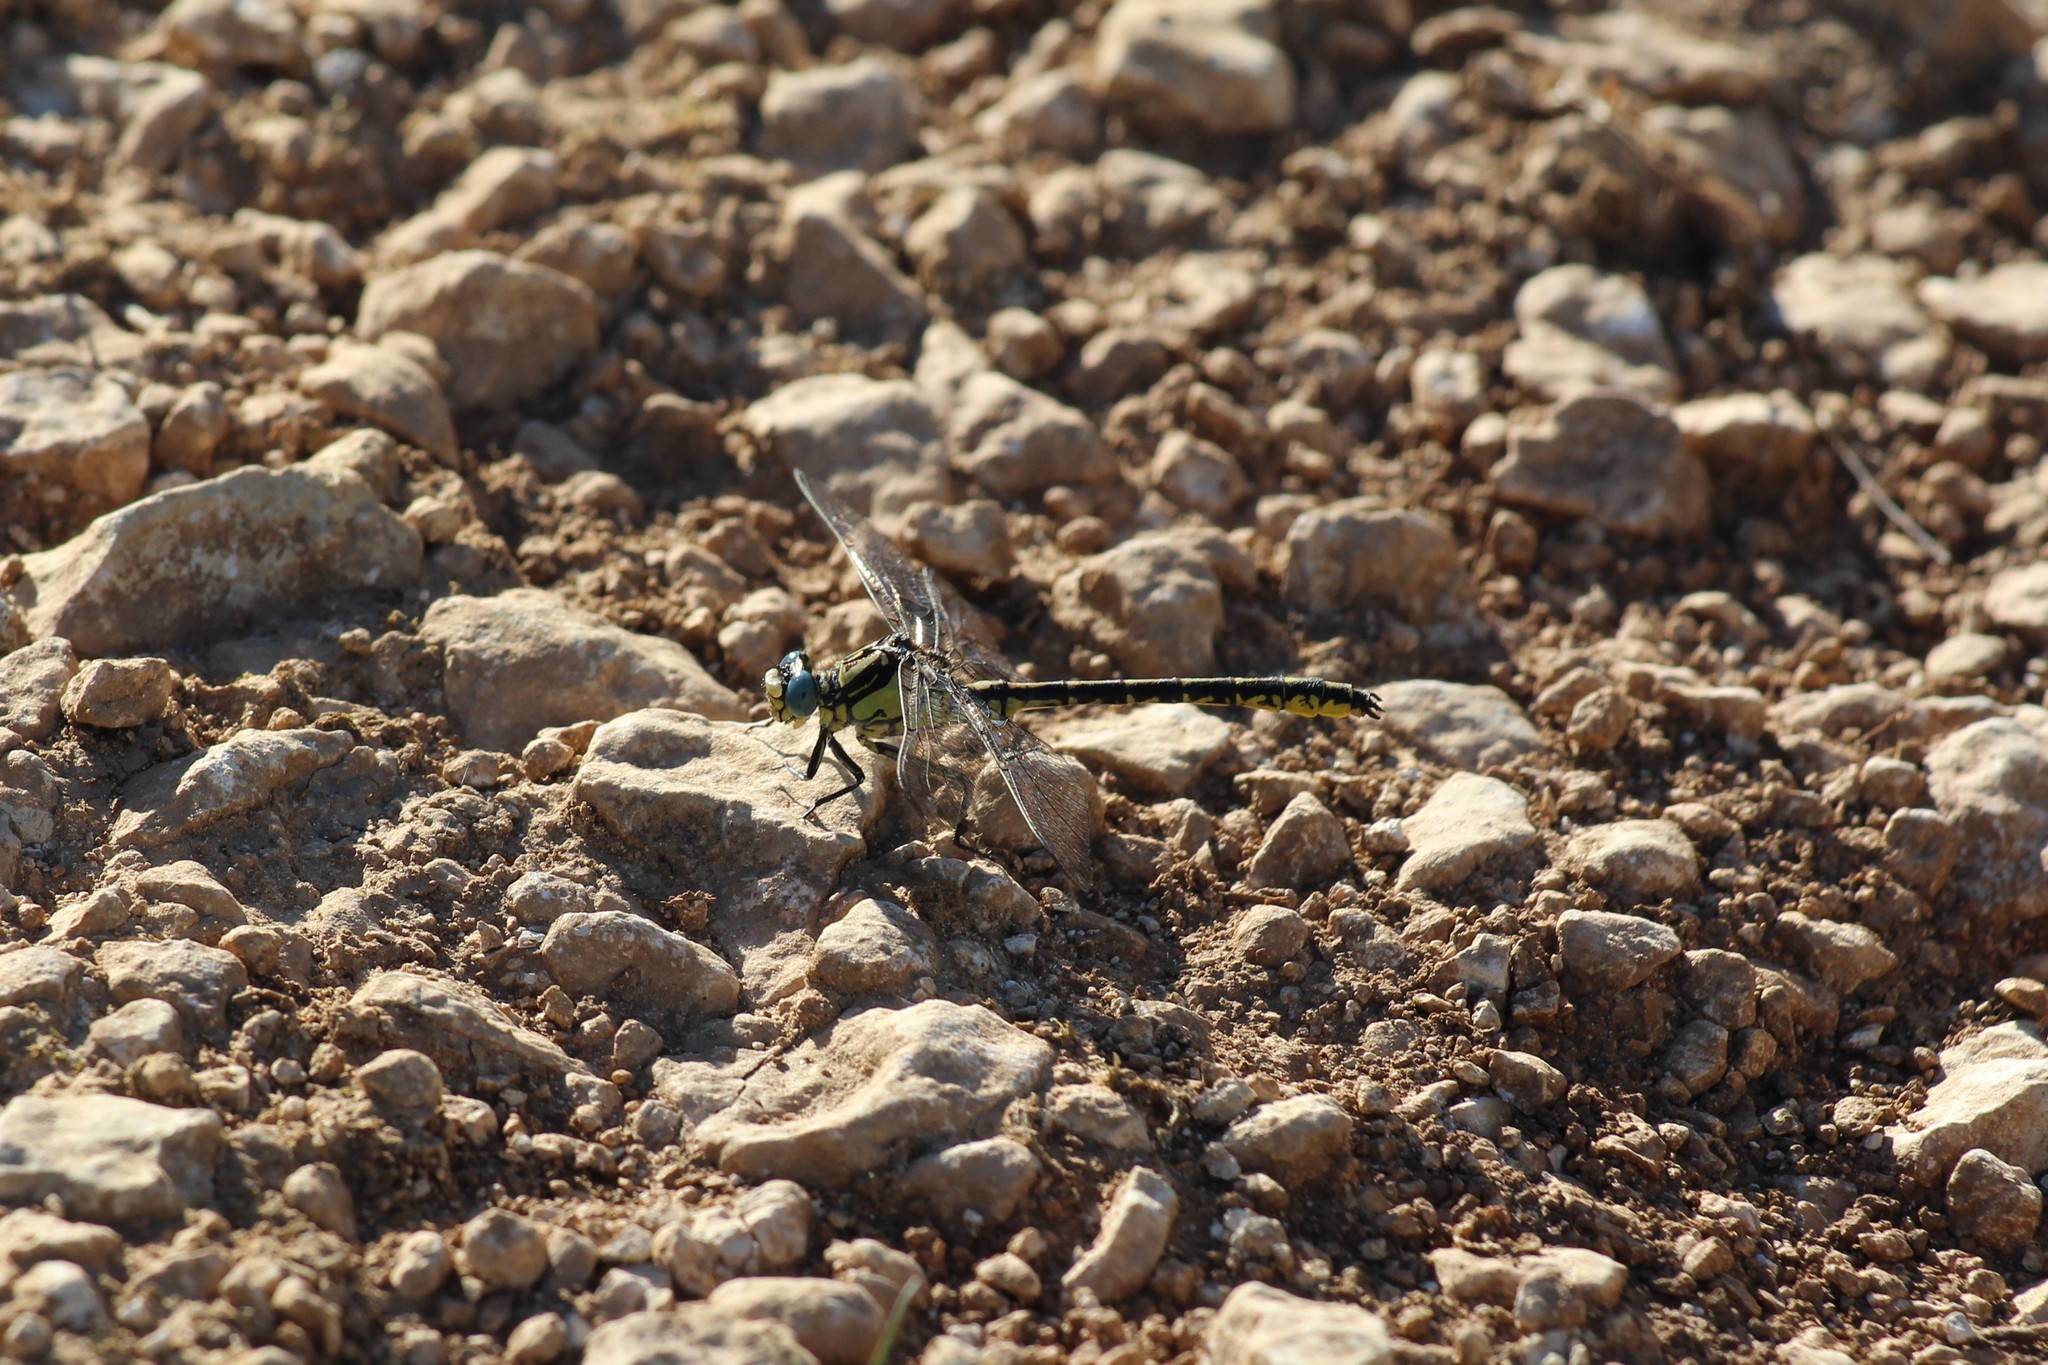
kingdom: Animalia
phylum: Arthropoda
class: Insecta
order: Odonata
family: Gomphidae
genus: Gomphus
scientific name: Gomphus graslinii
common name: Pronged clubtail
